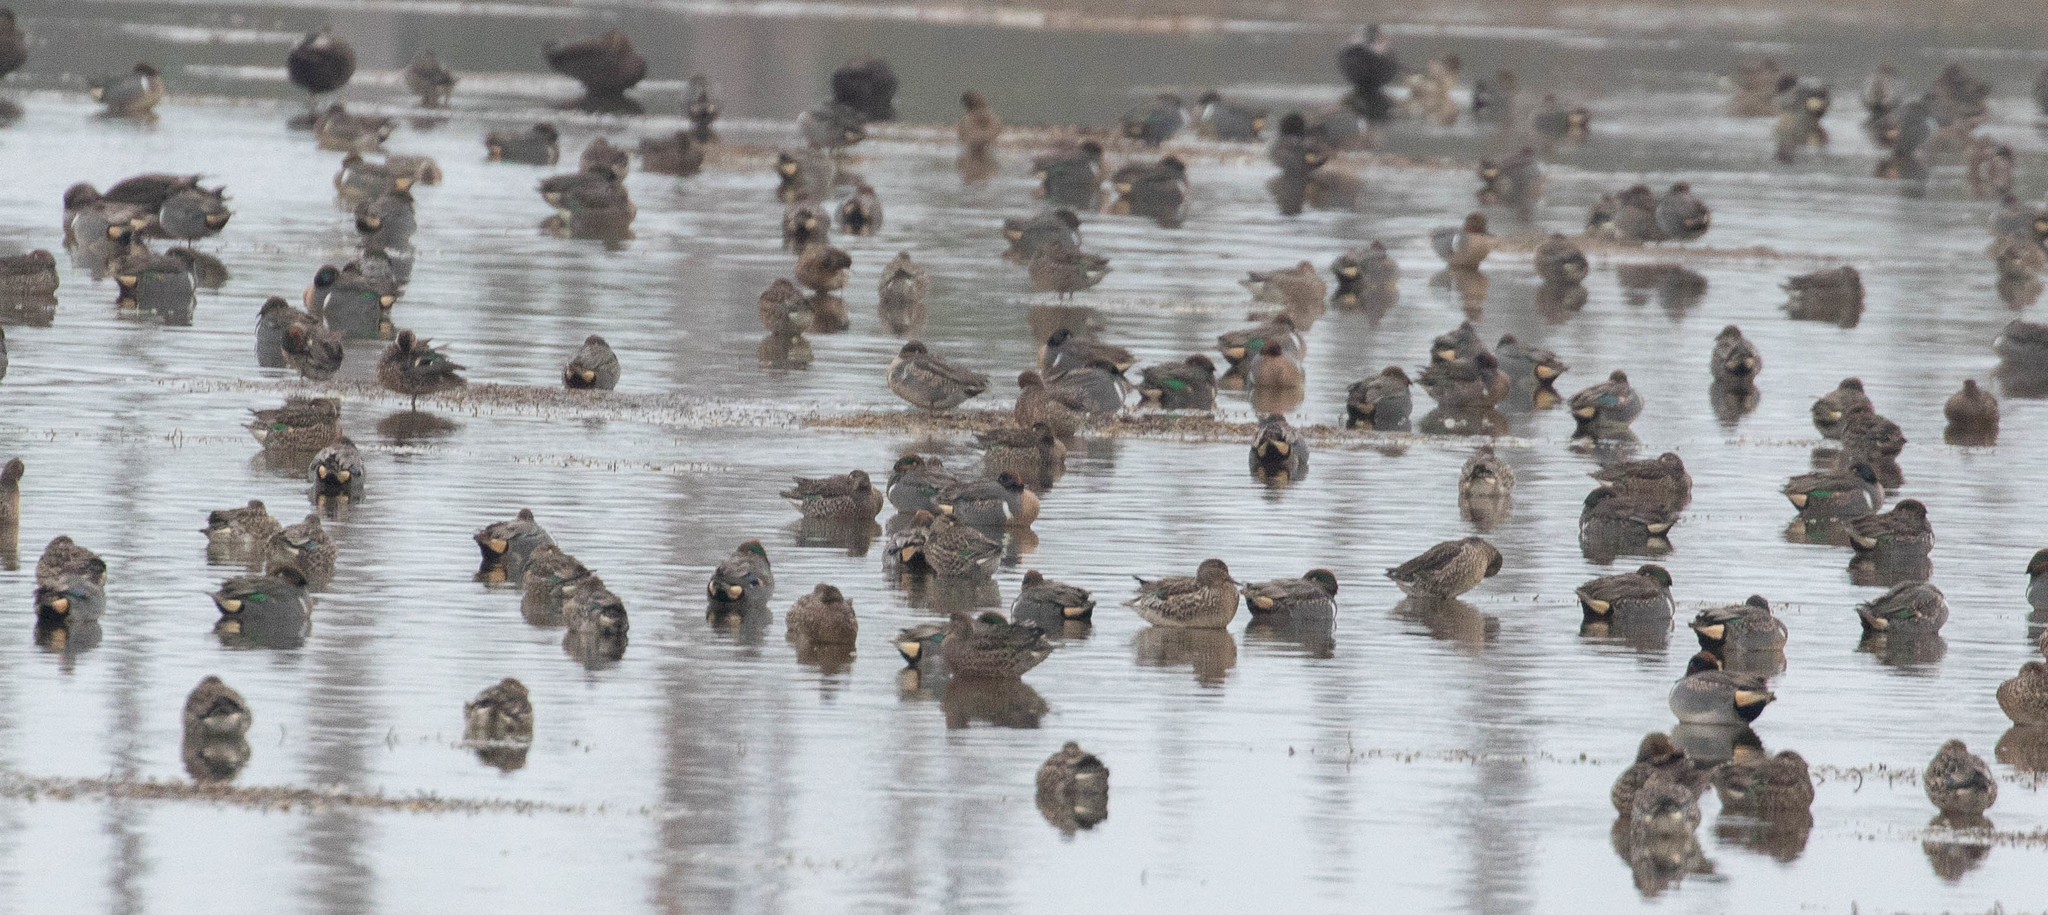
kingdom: Animalia
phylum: Chordata
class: Aves
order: Anseriformes
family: Anatidae
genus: Anas
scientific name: Anas crecca
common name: Eurasian teal
